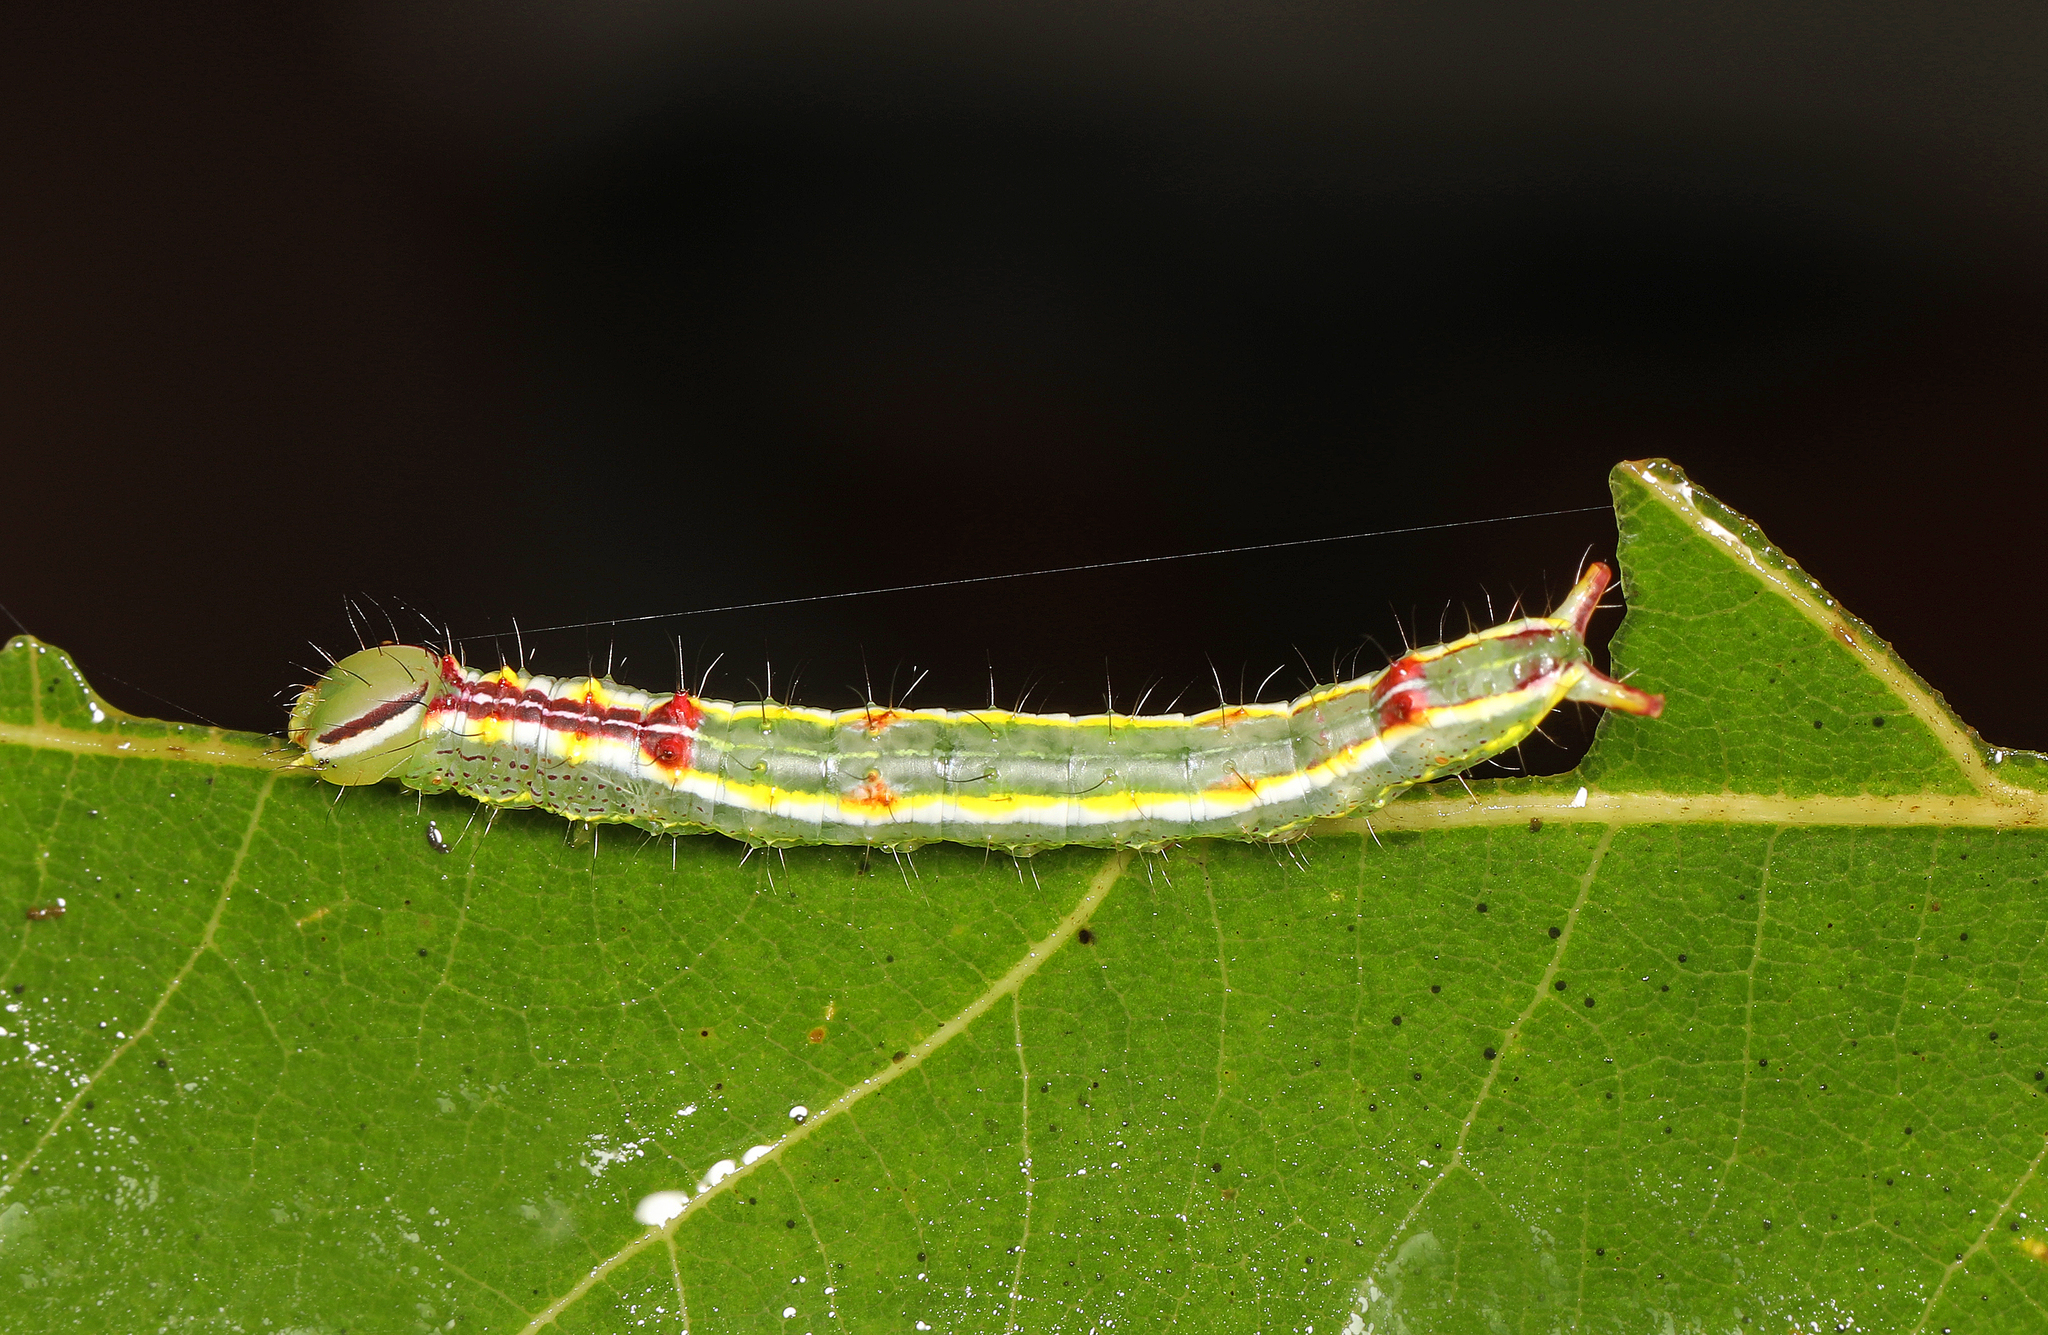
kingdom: Animalia
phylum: Arthropoda
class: Insecta
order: Lepidoptera
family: Notodontidae
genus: Lochmaeus
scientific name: Lochmaeus manteo
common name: Variable oakleaf caterpillar moth
